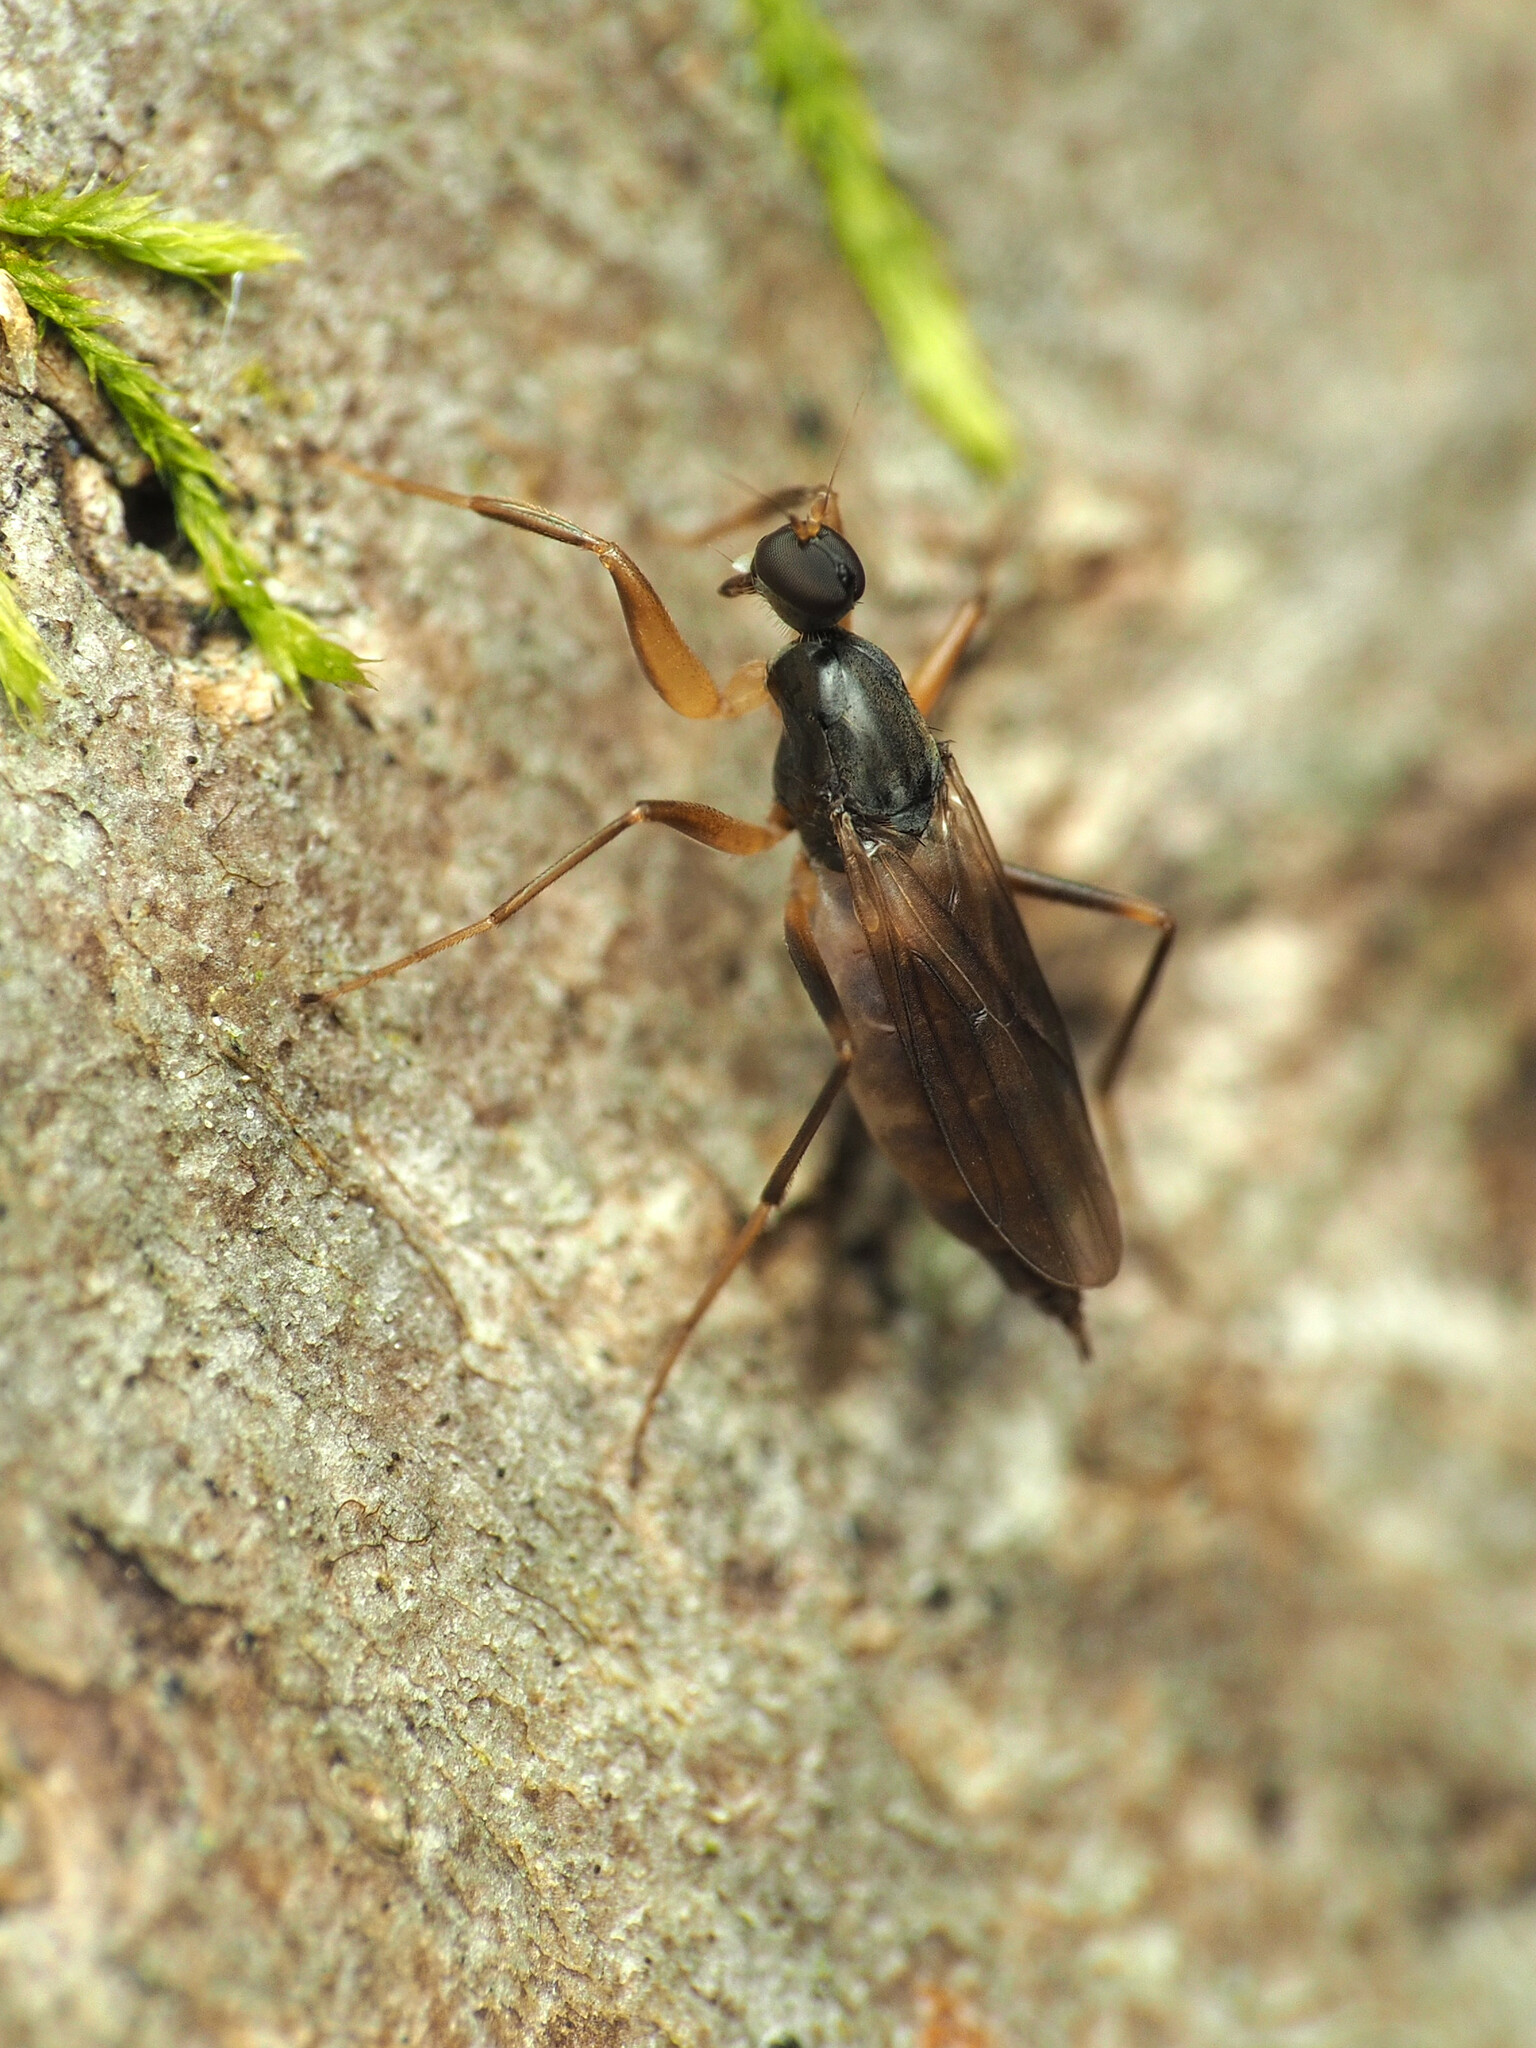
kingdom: Animalia
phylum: Arthropoda
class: Insecta
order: Diptera
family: Hybotidae
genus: Tachypeza
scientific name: Tachypeza pruinosa
